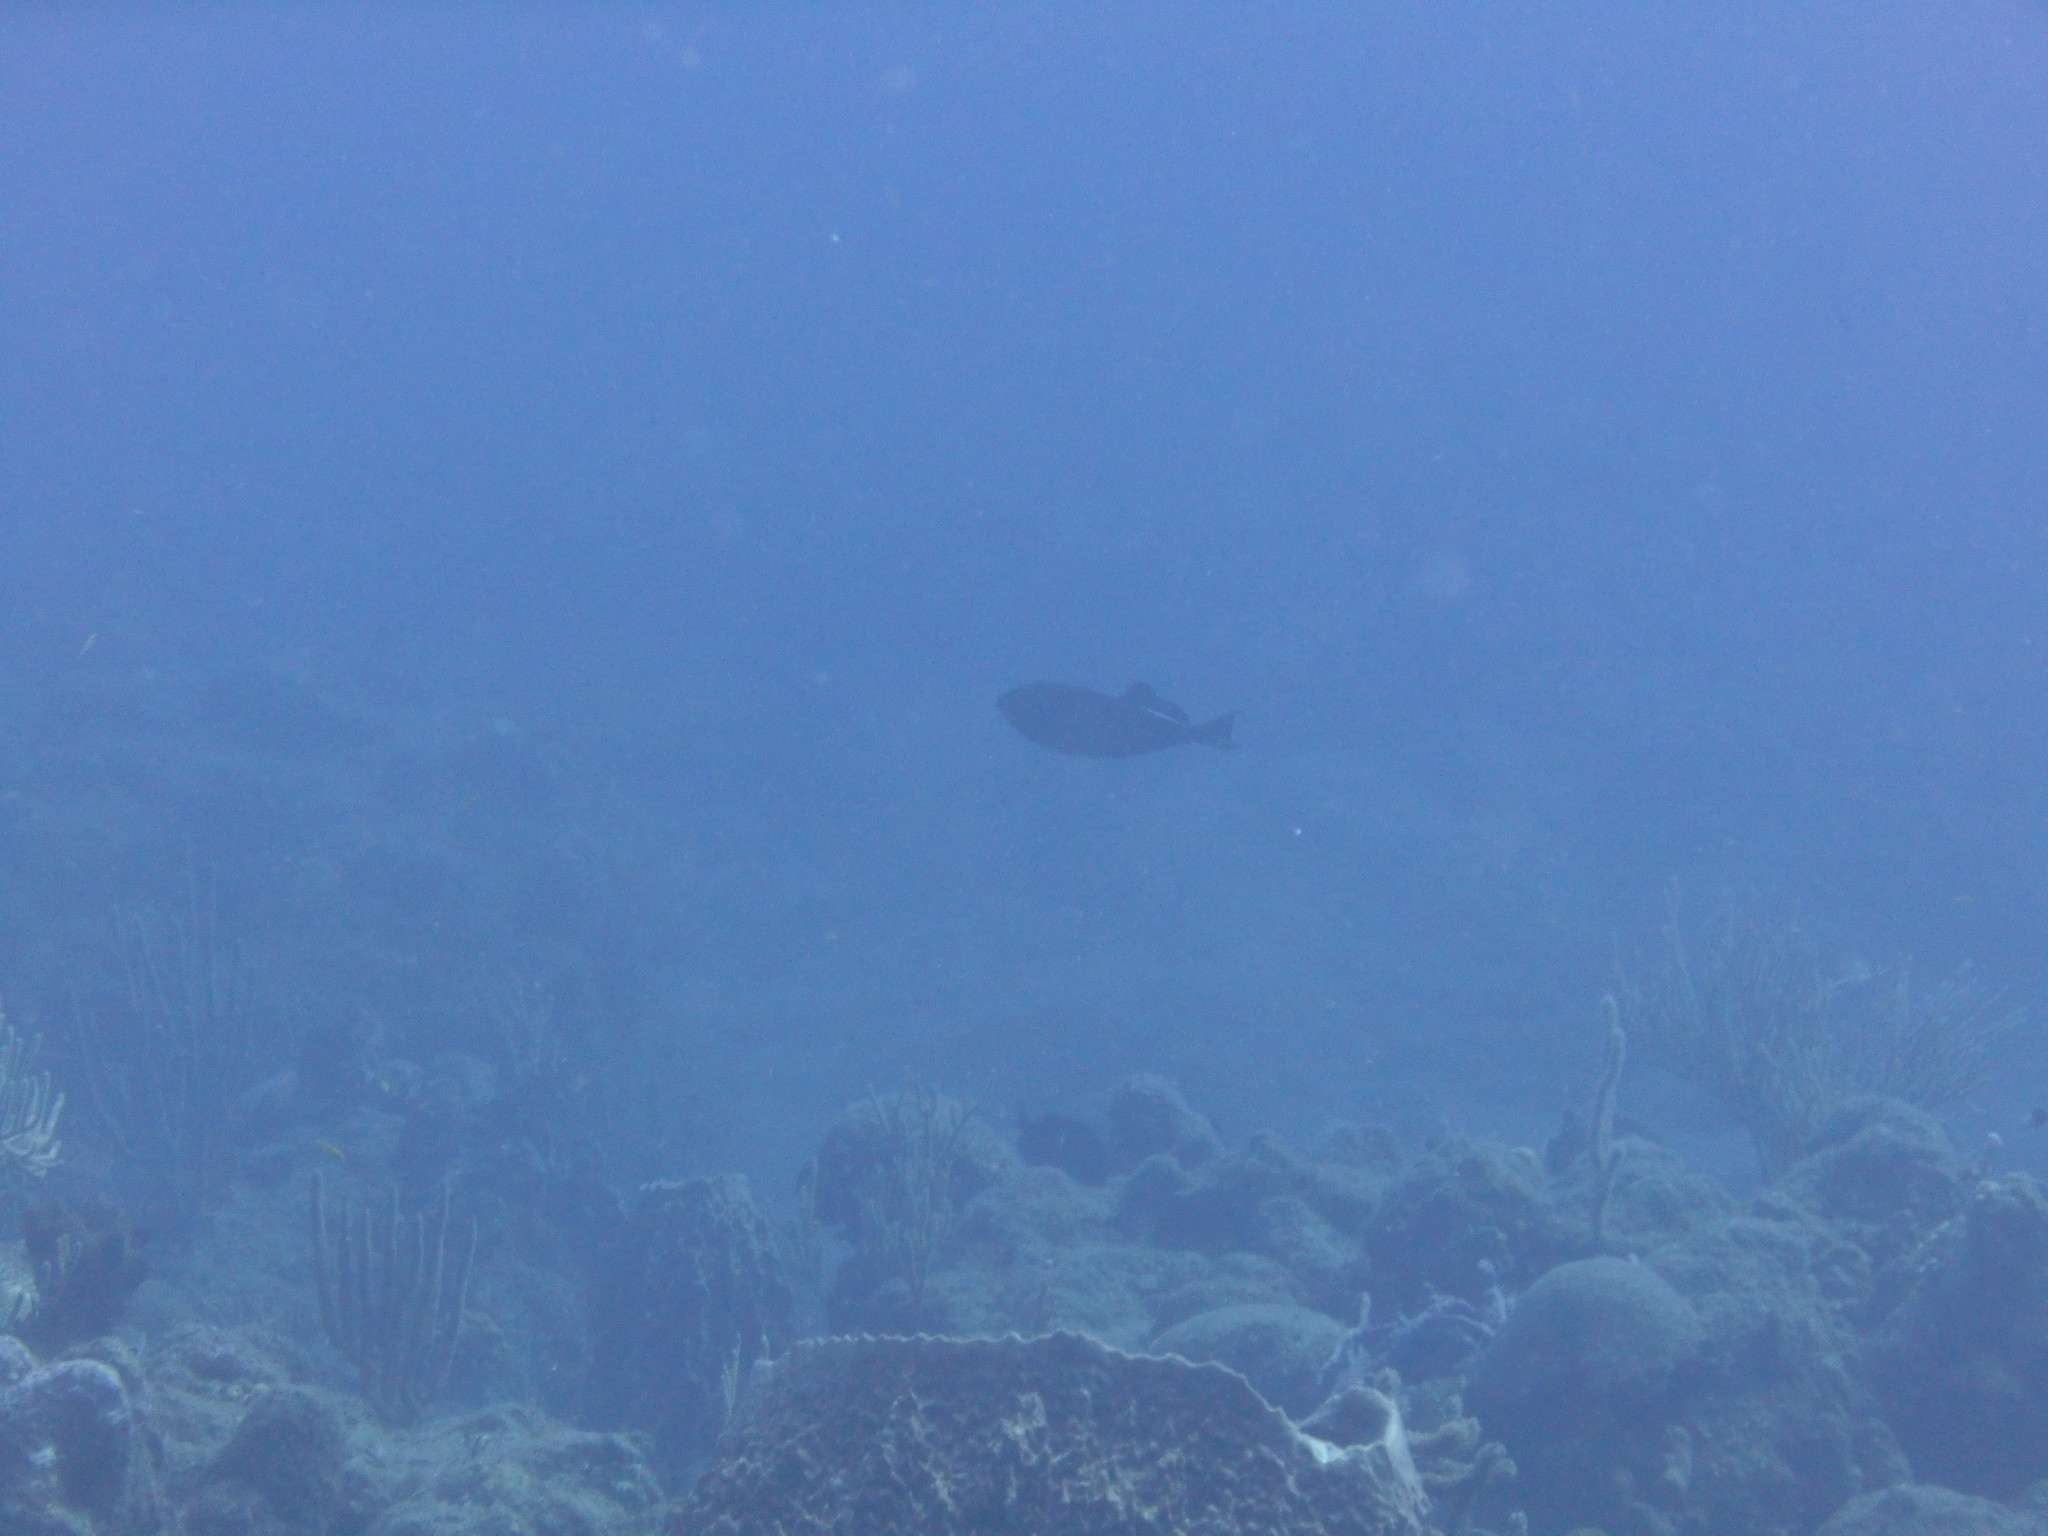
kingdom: Animalia
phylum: Chordata
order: Tetraodontiformes
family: Balistidae
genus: Melichthys
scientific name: Melichthys niger
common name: Black durgon
